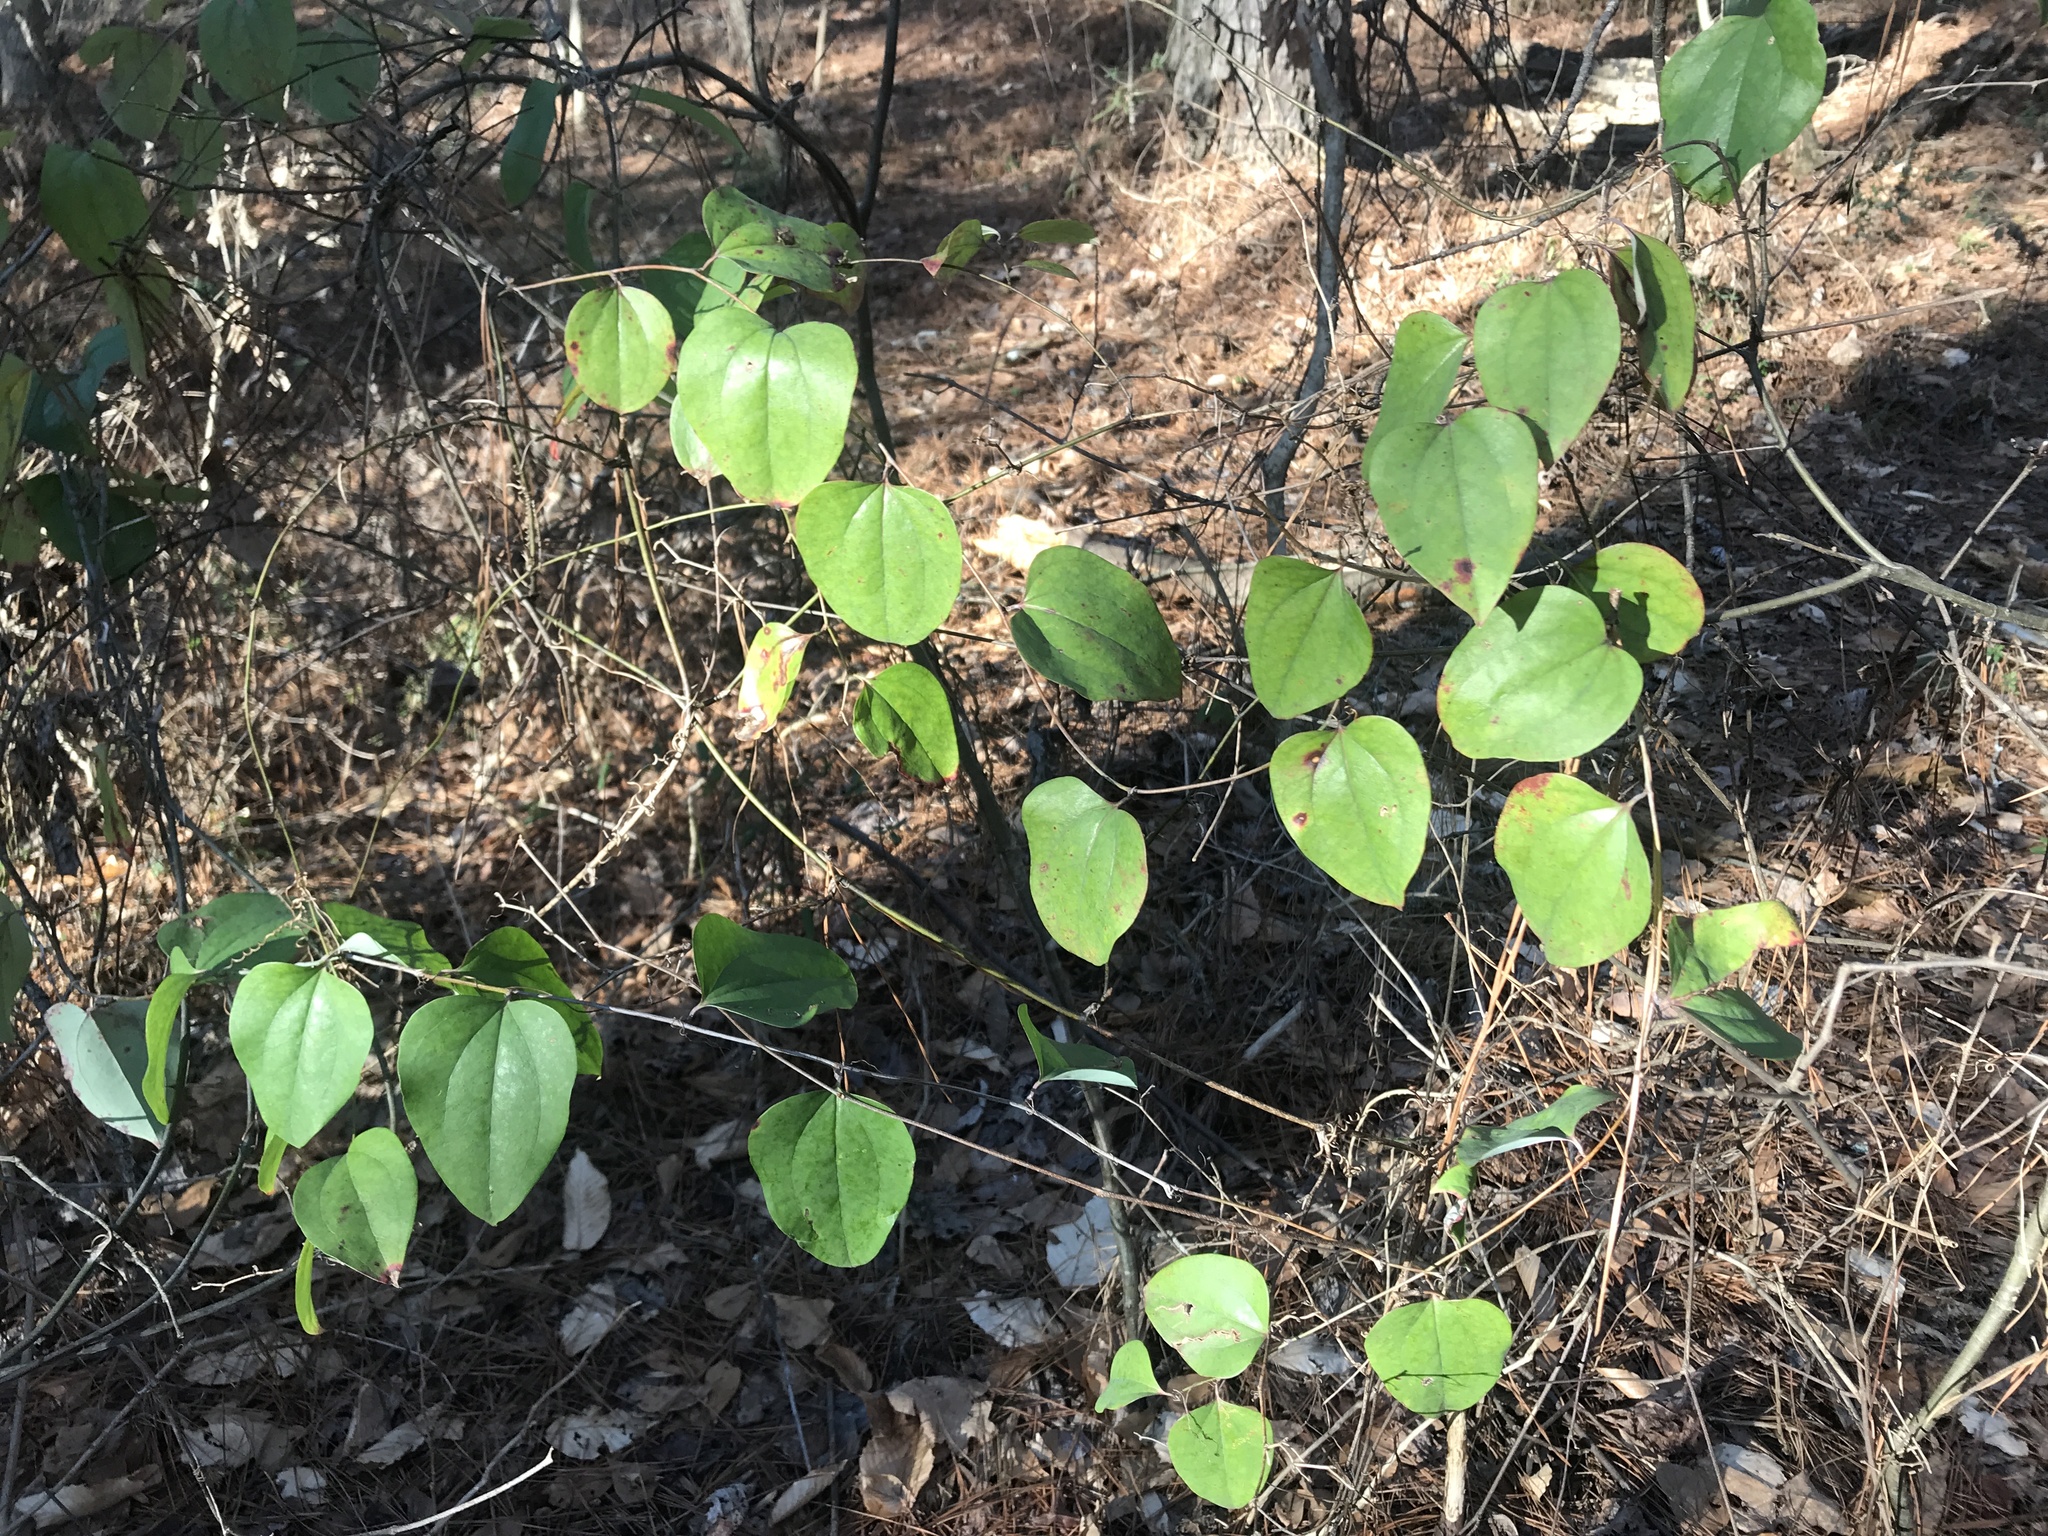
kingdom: Plantae
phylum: Tracheophyta
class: Liliopsida
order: Liliales
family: Smilacaceae
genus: Smilax
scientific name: Smilax rotundifolia
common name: Bullbriar
